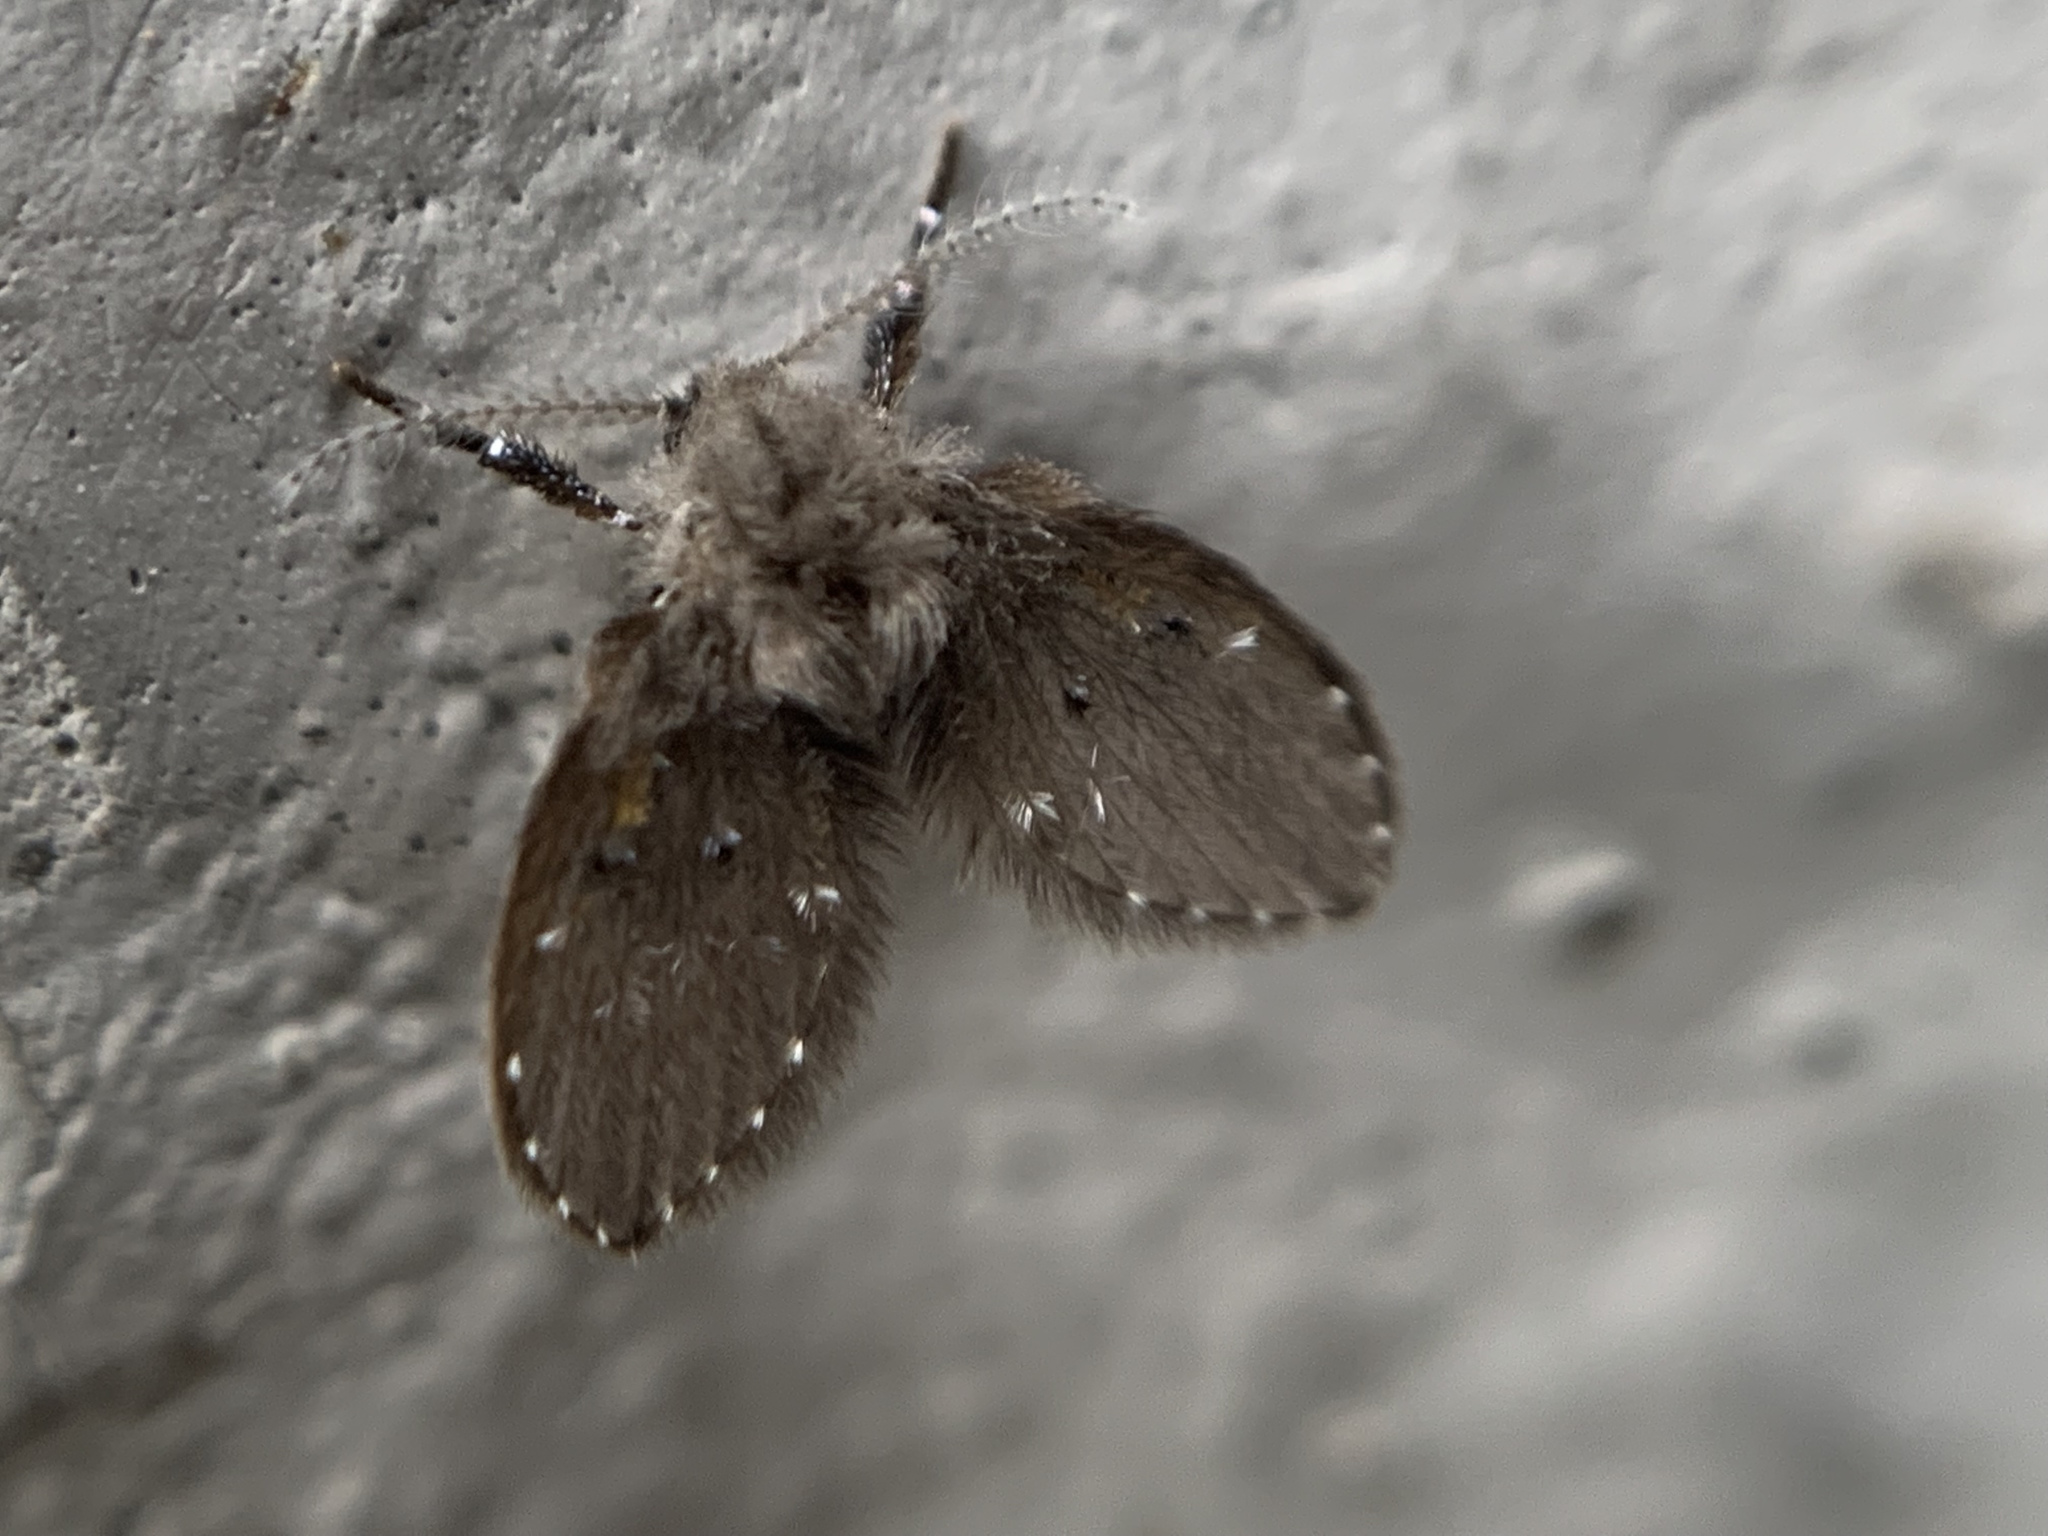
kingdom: Animalia
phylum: Arthropoda
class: Insecta
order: Diptera
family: Psychodidae
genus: Clogmia
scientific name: Clogmia albipunctatus
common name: White-spotted moth fly
